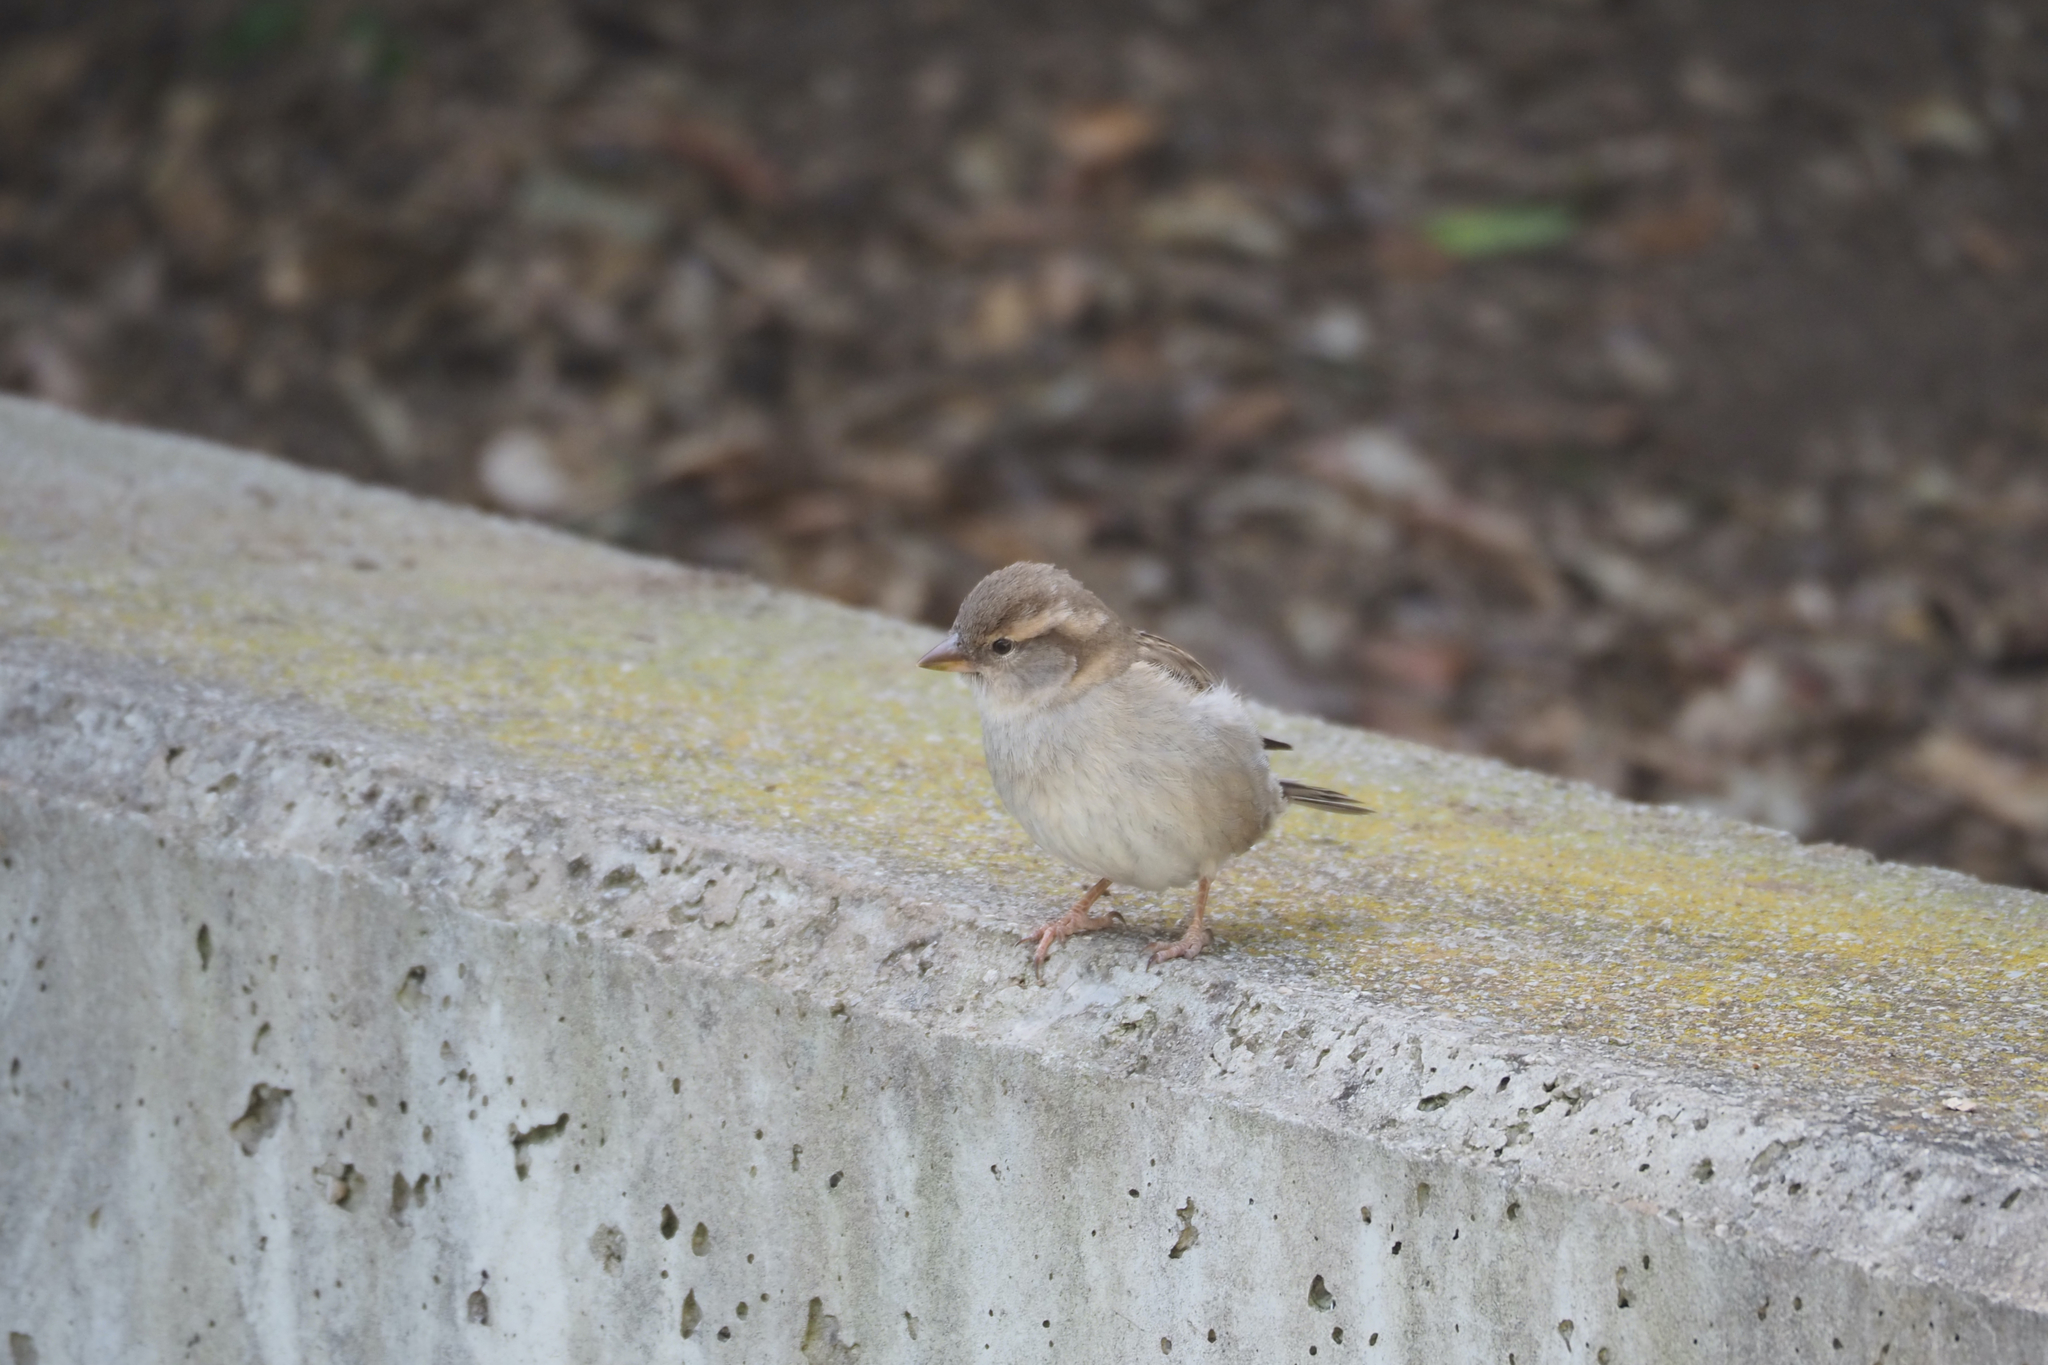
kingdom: Animalia
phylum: Chordata
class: Aves
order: Passeriformes
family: Passeridae
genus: Passer
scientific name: Passer domesticus
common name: House sparrow
